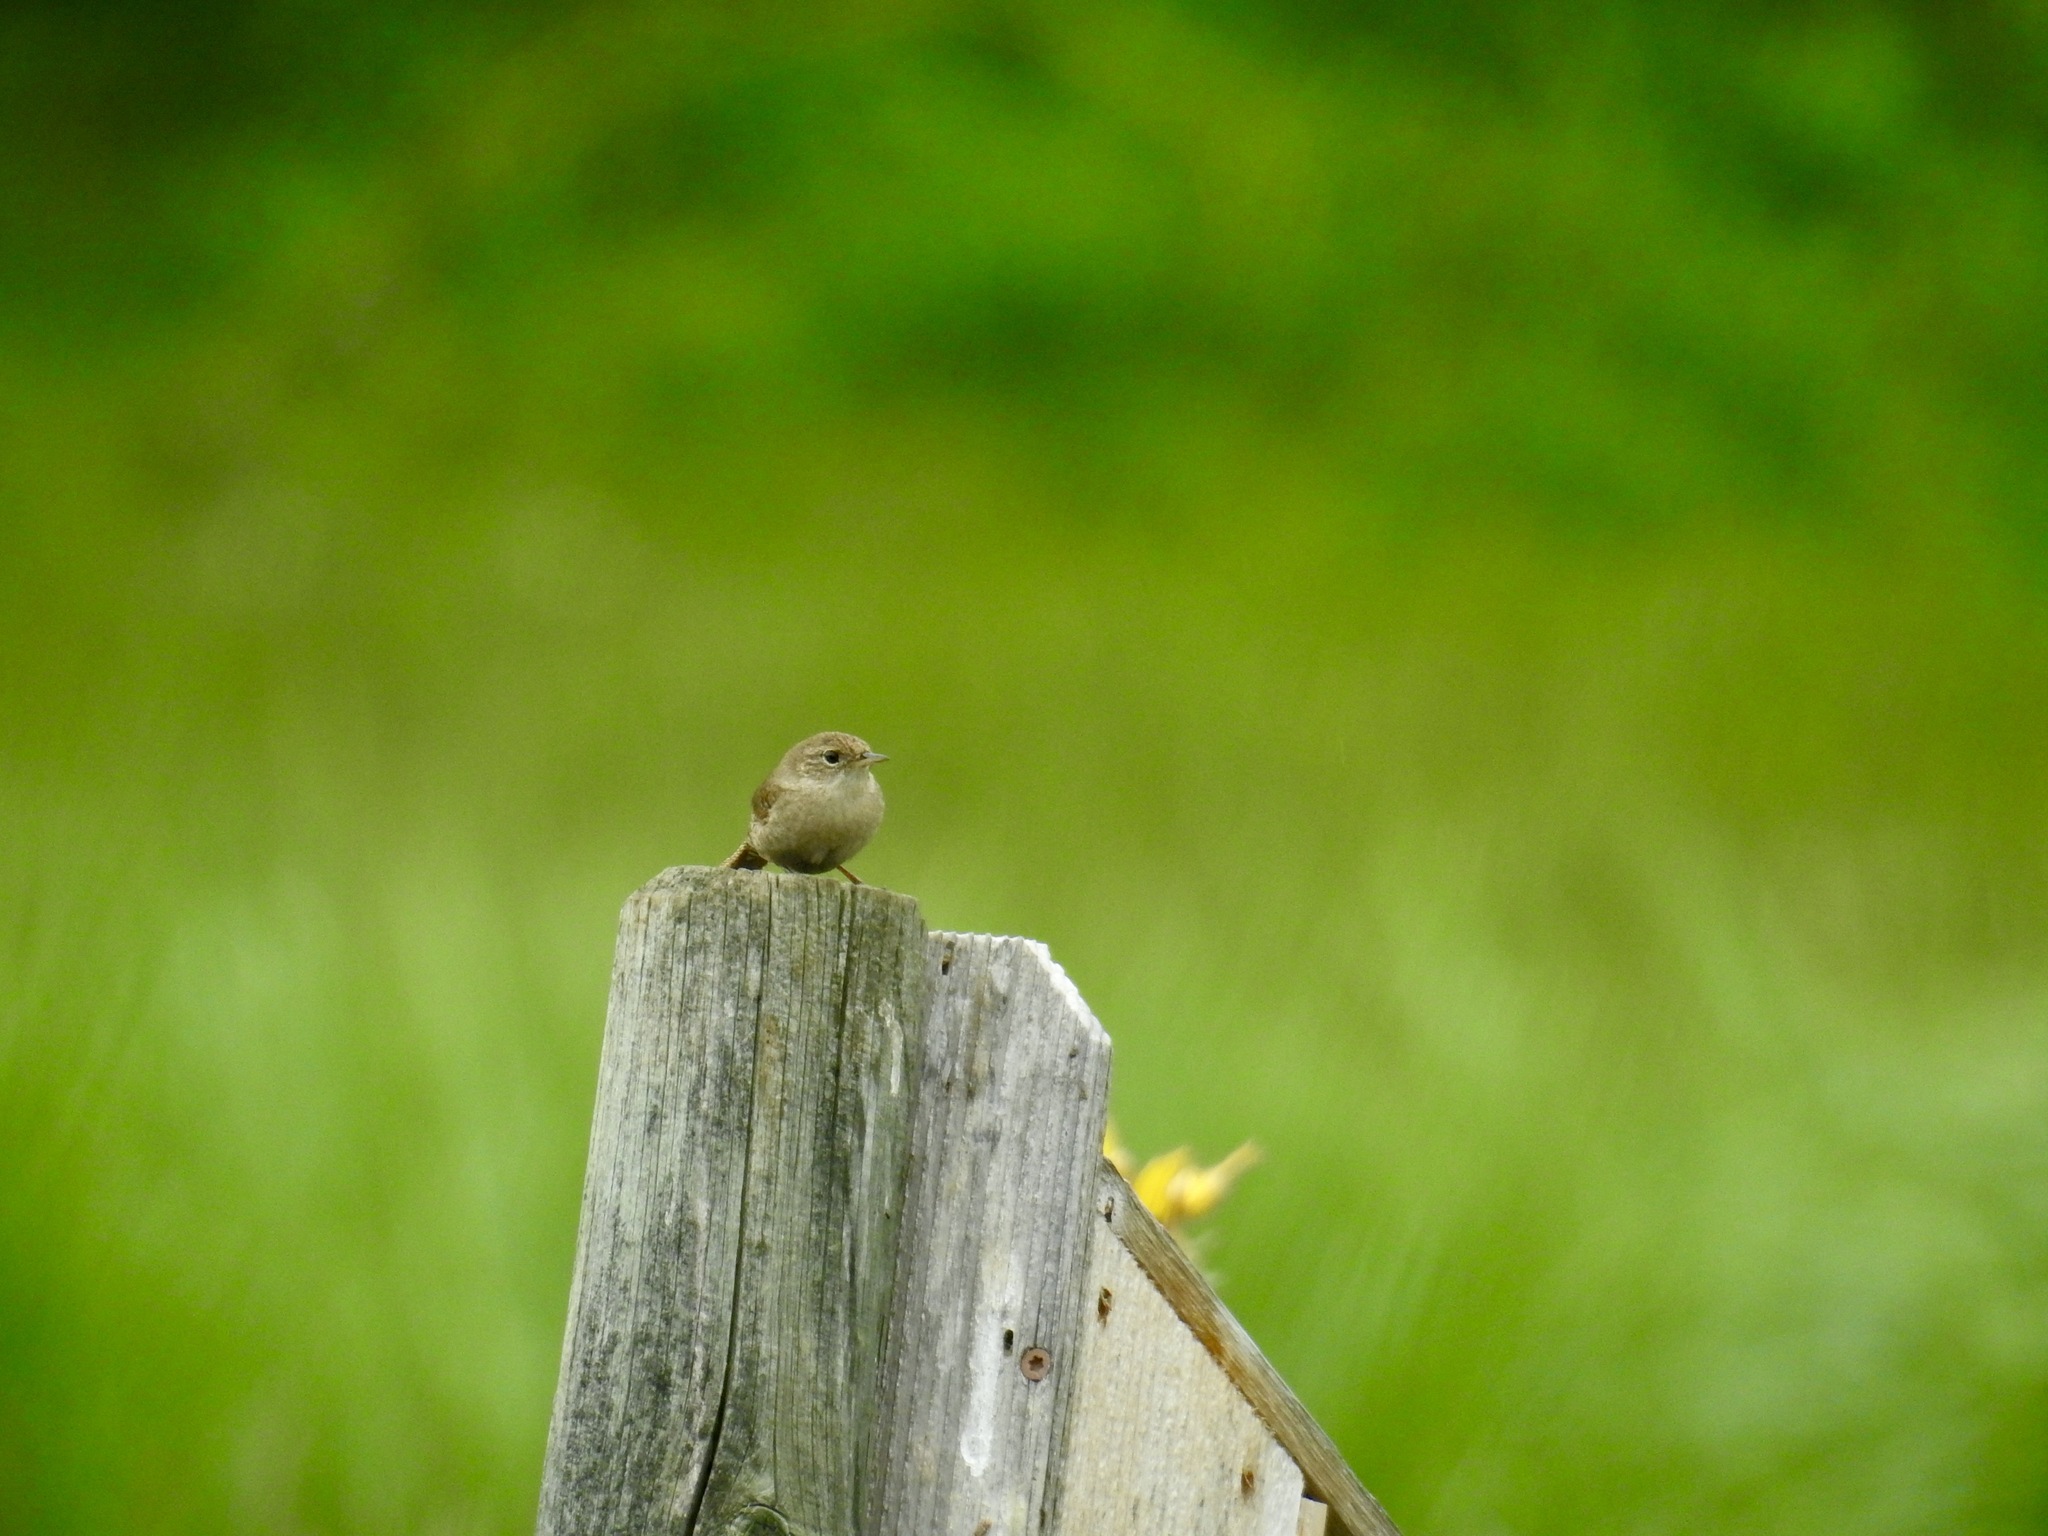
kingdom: Animalia
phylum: Chordata
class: Aves
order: Passeriformes
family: Troglodytidae
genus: Troglodytes
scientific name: Troglodytes aedon
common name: House wren
